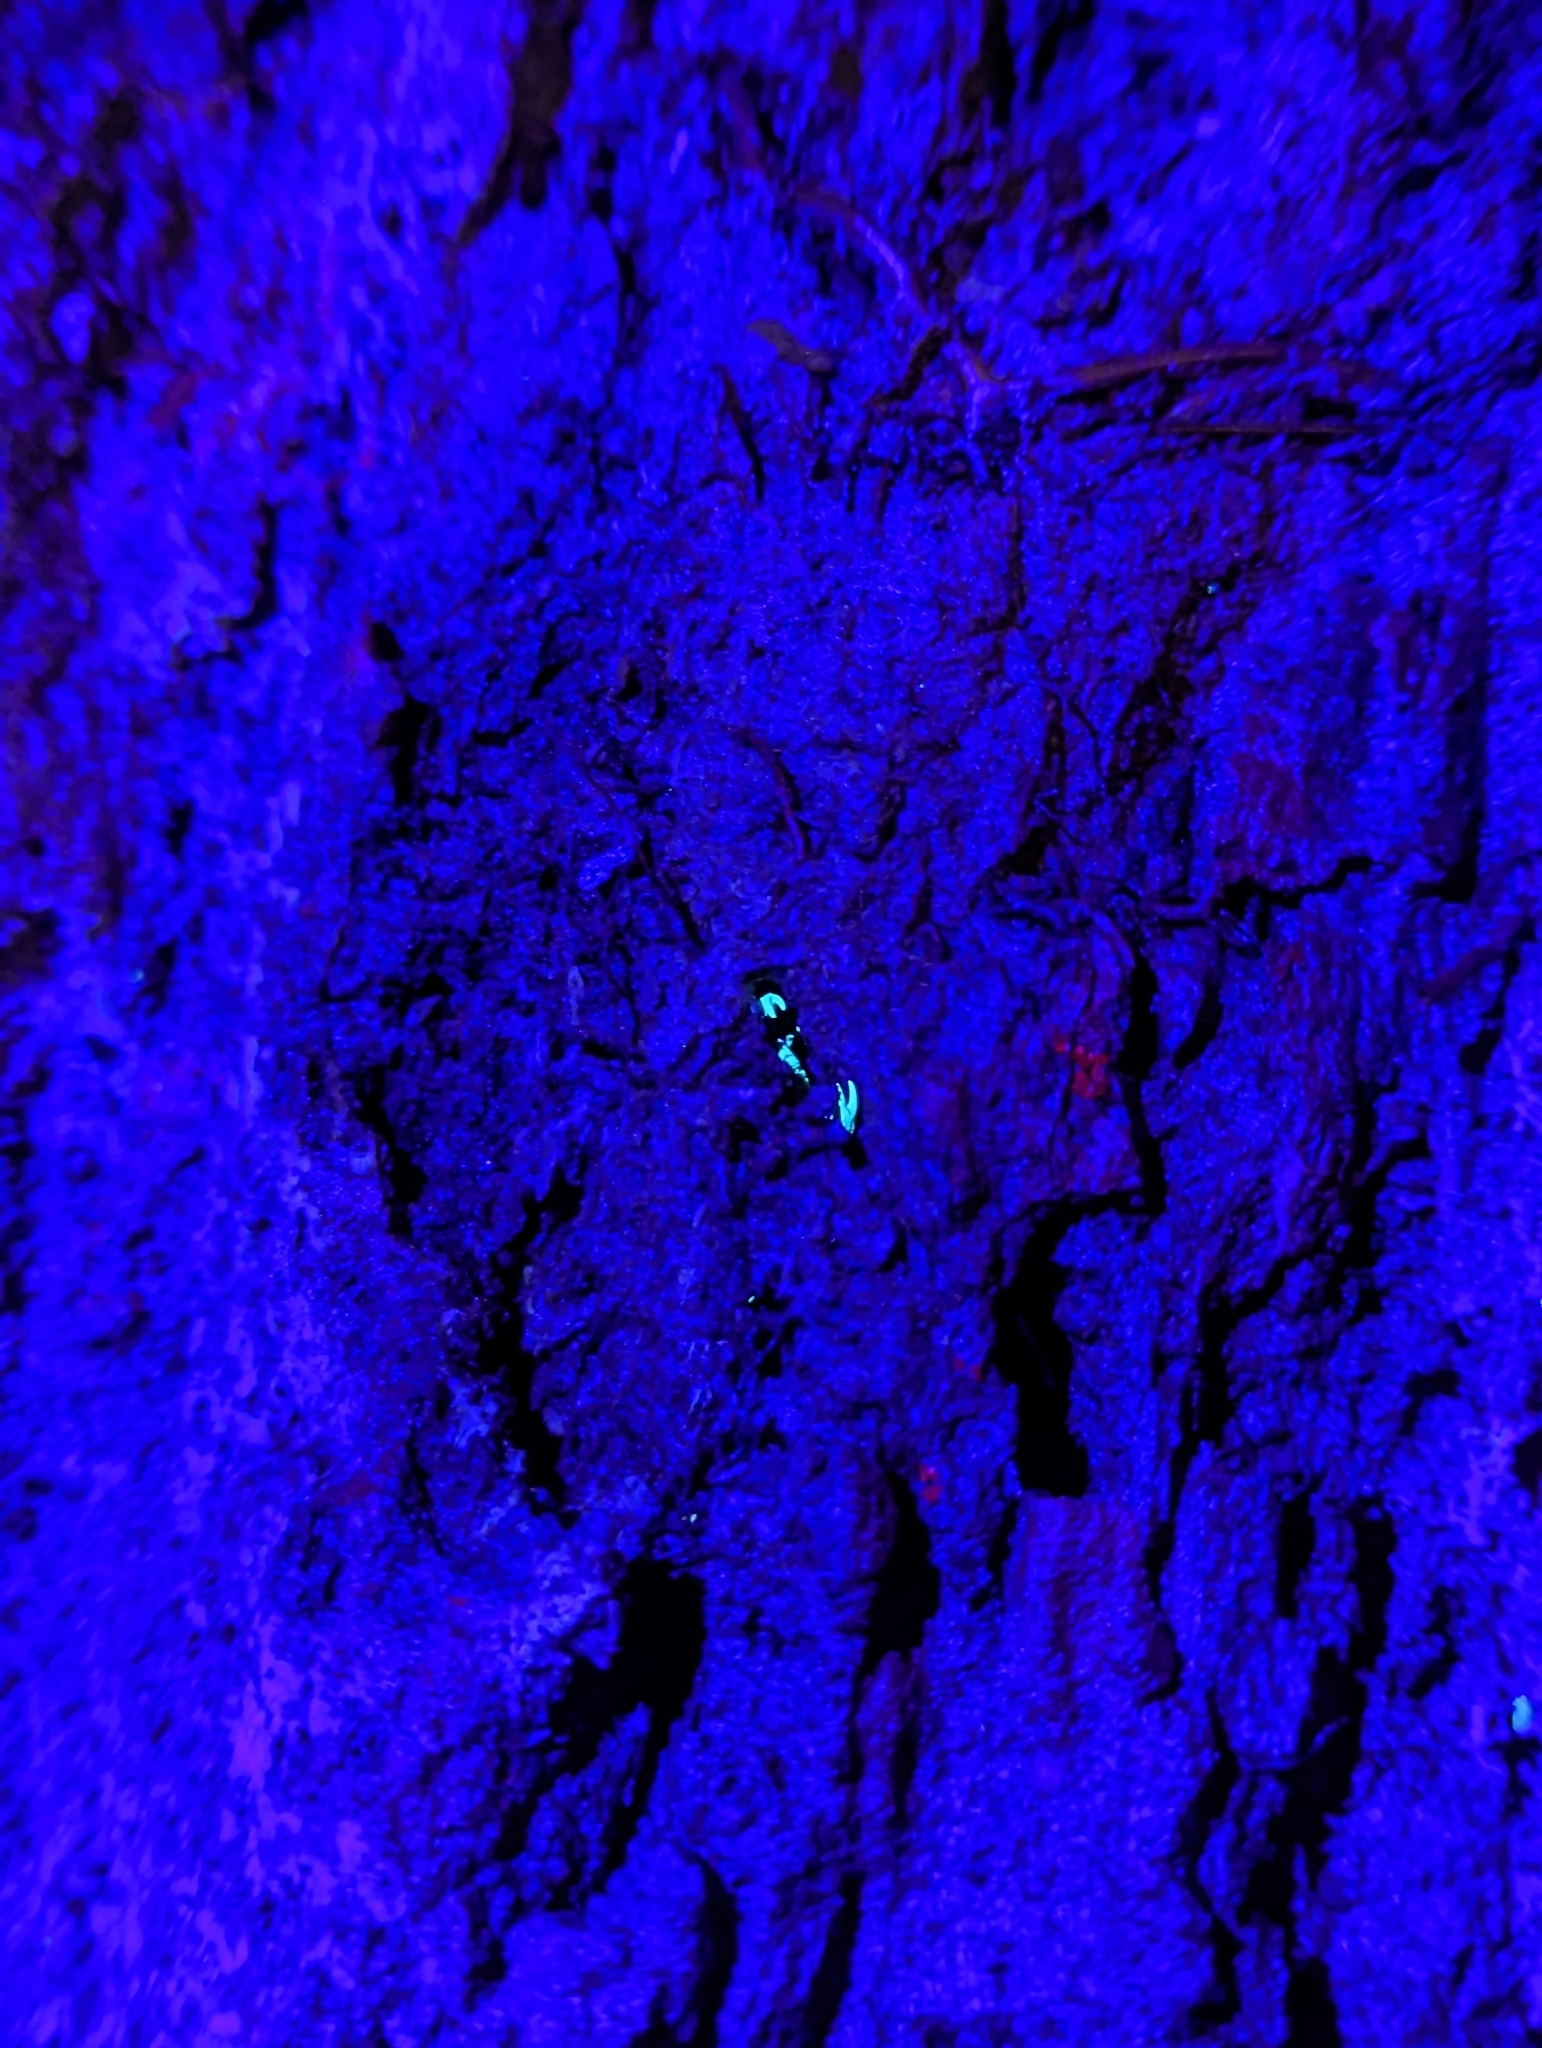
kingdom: Animalia
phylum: Arthropoda
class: Arachnida
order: Scorpiones
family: Hormuridae
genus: Liocheles
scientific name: Liocheles australasiae
